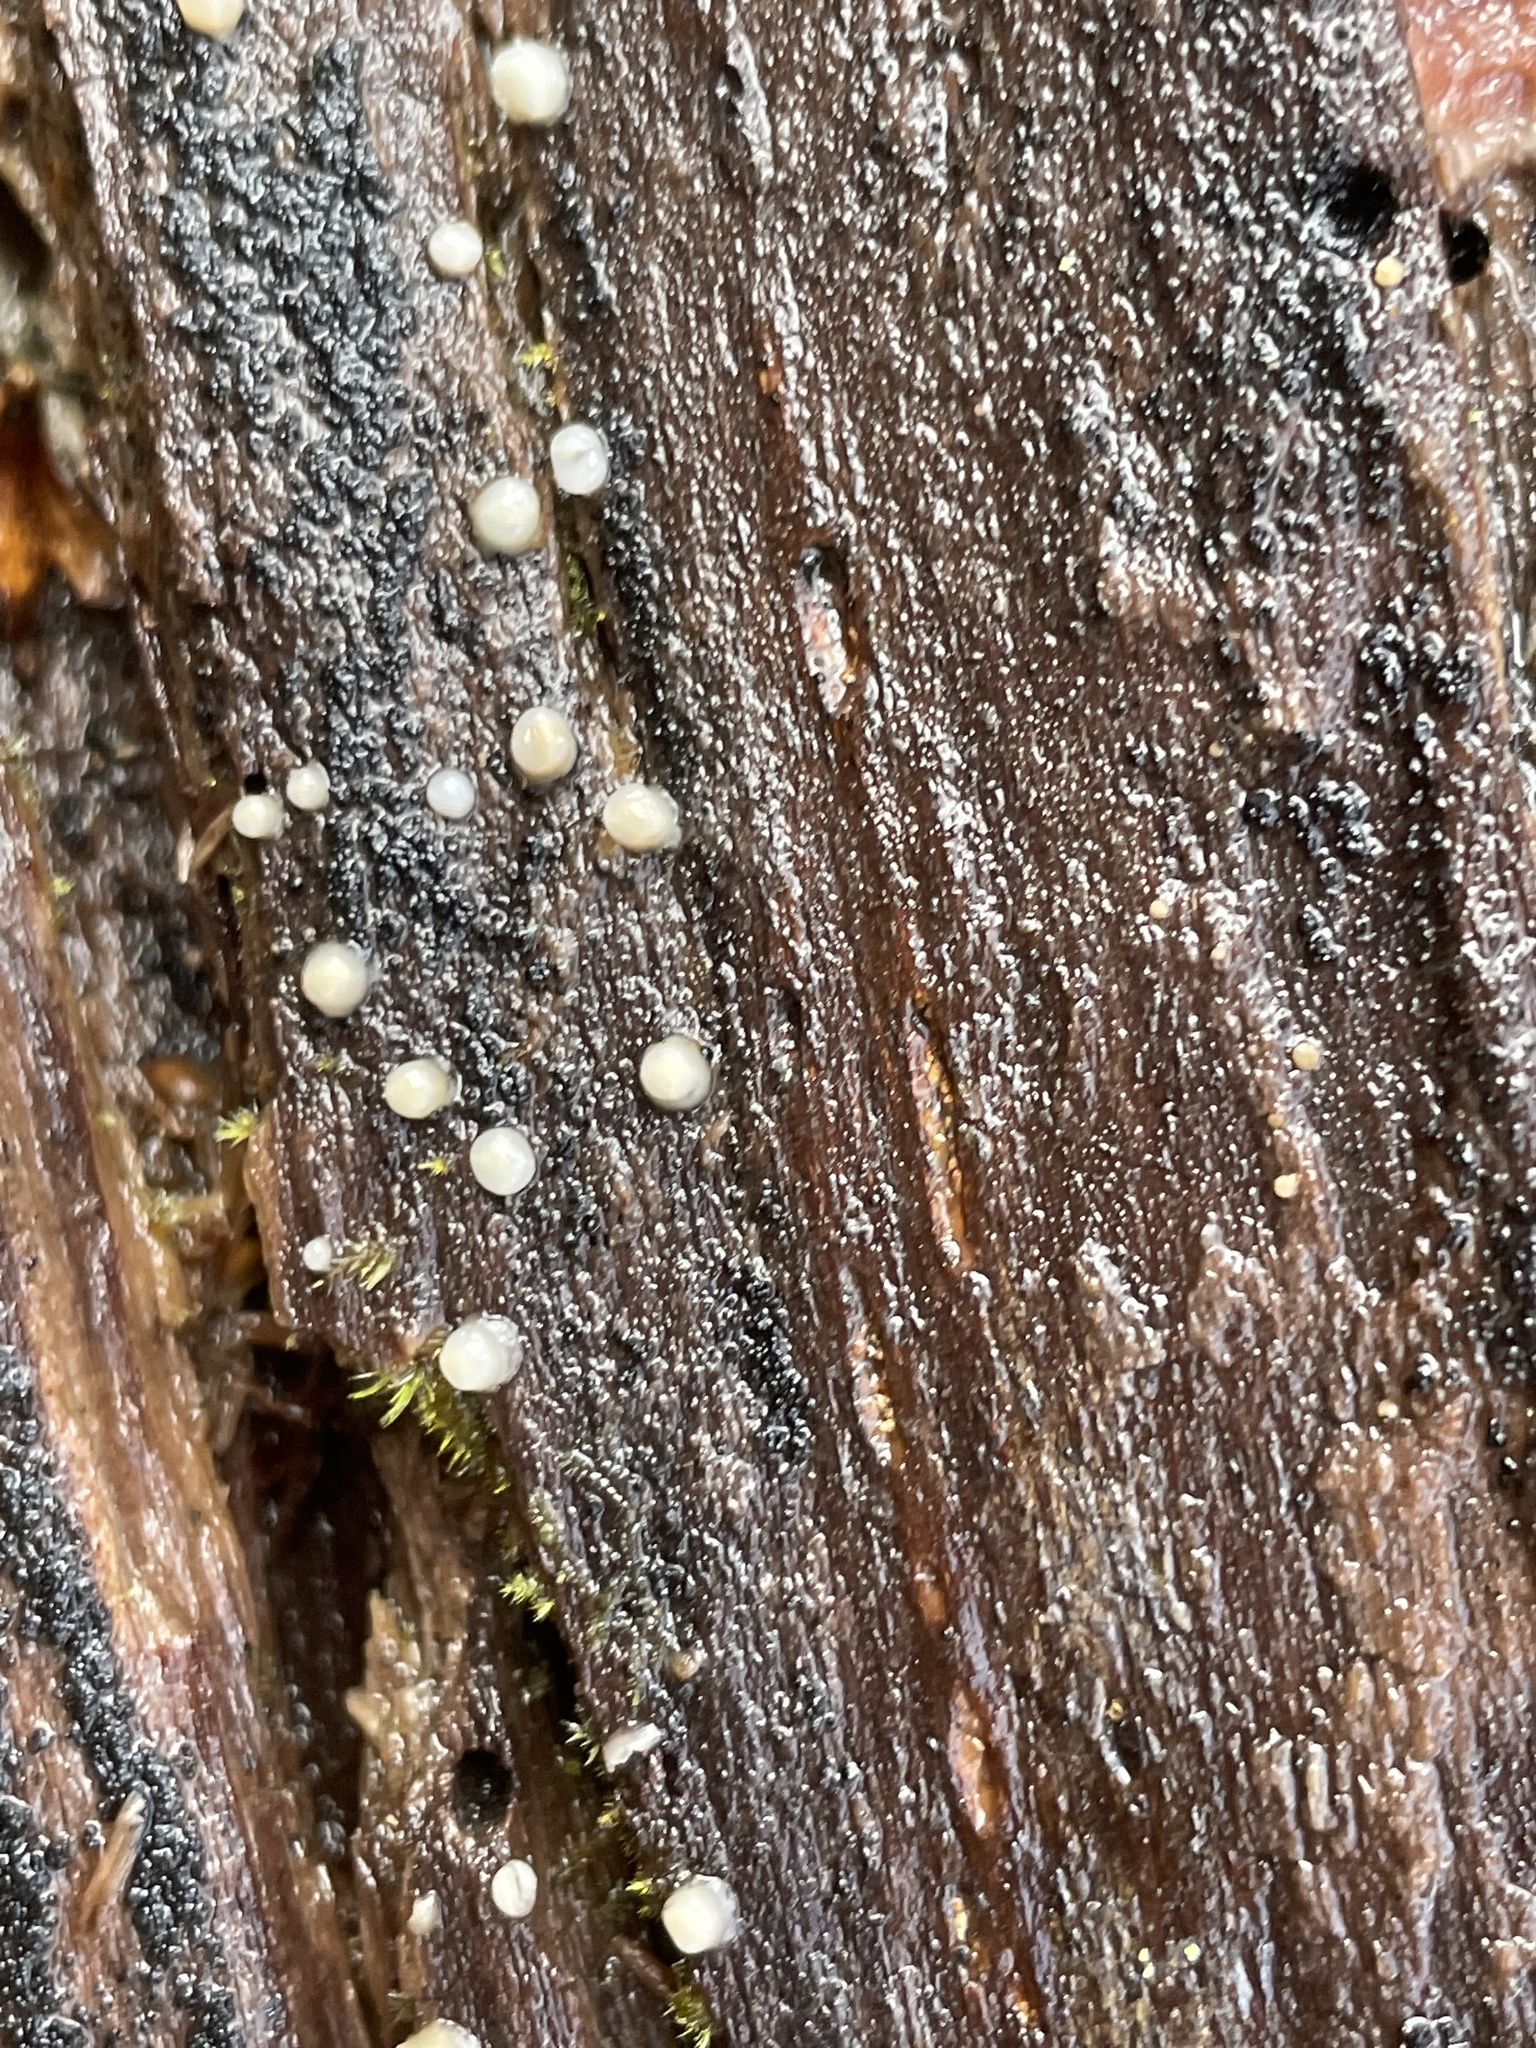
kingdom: Fungi
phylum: Basidiomycota
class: Atractiellomycetes
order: Atractiellales
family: Phleogenaceae
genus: Helicogloea
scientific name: Helicogloea compressa
